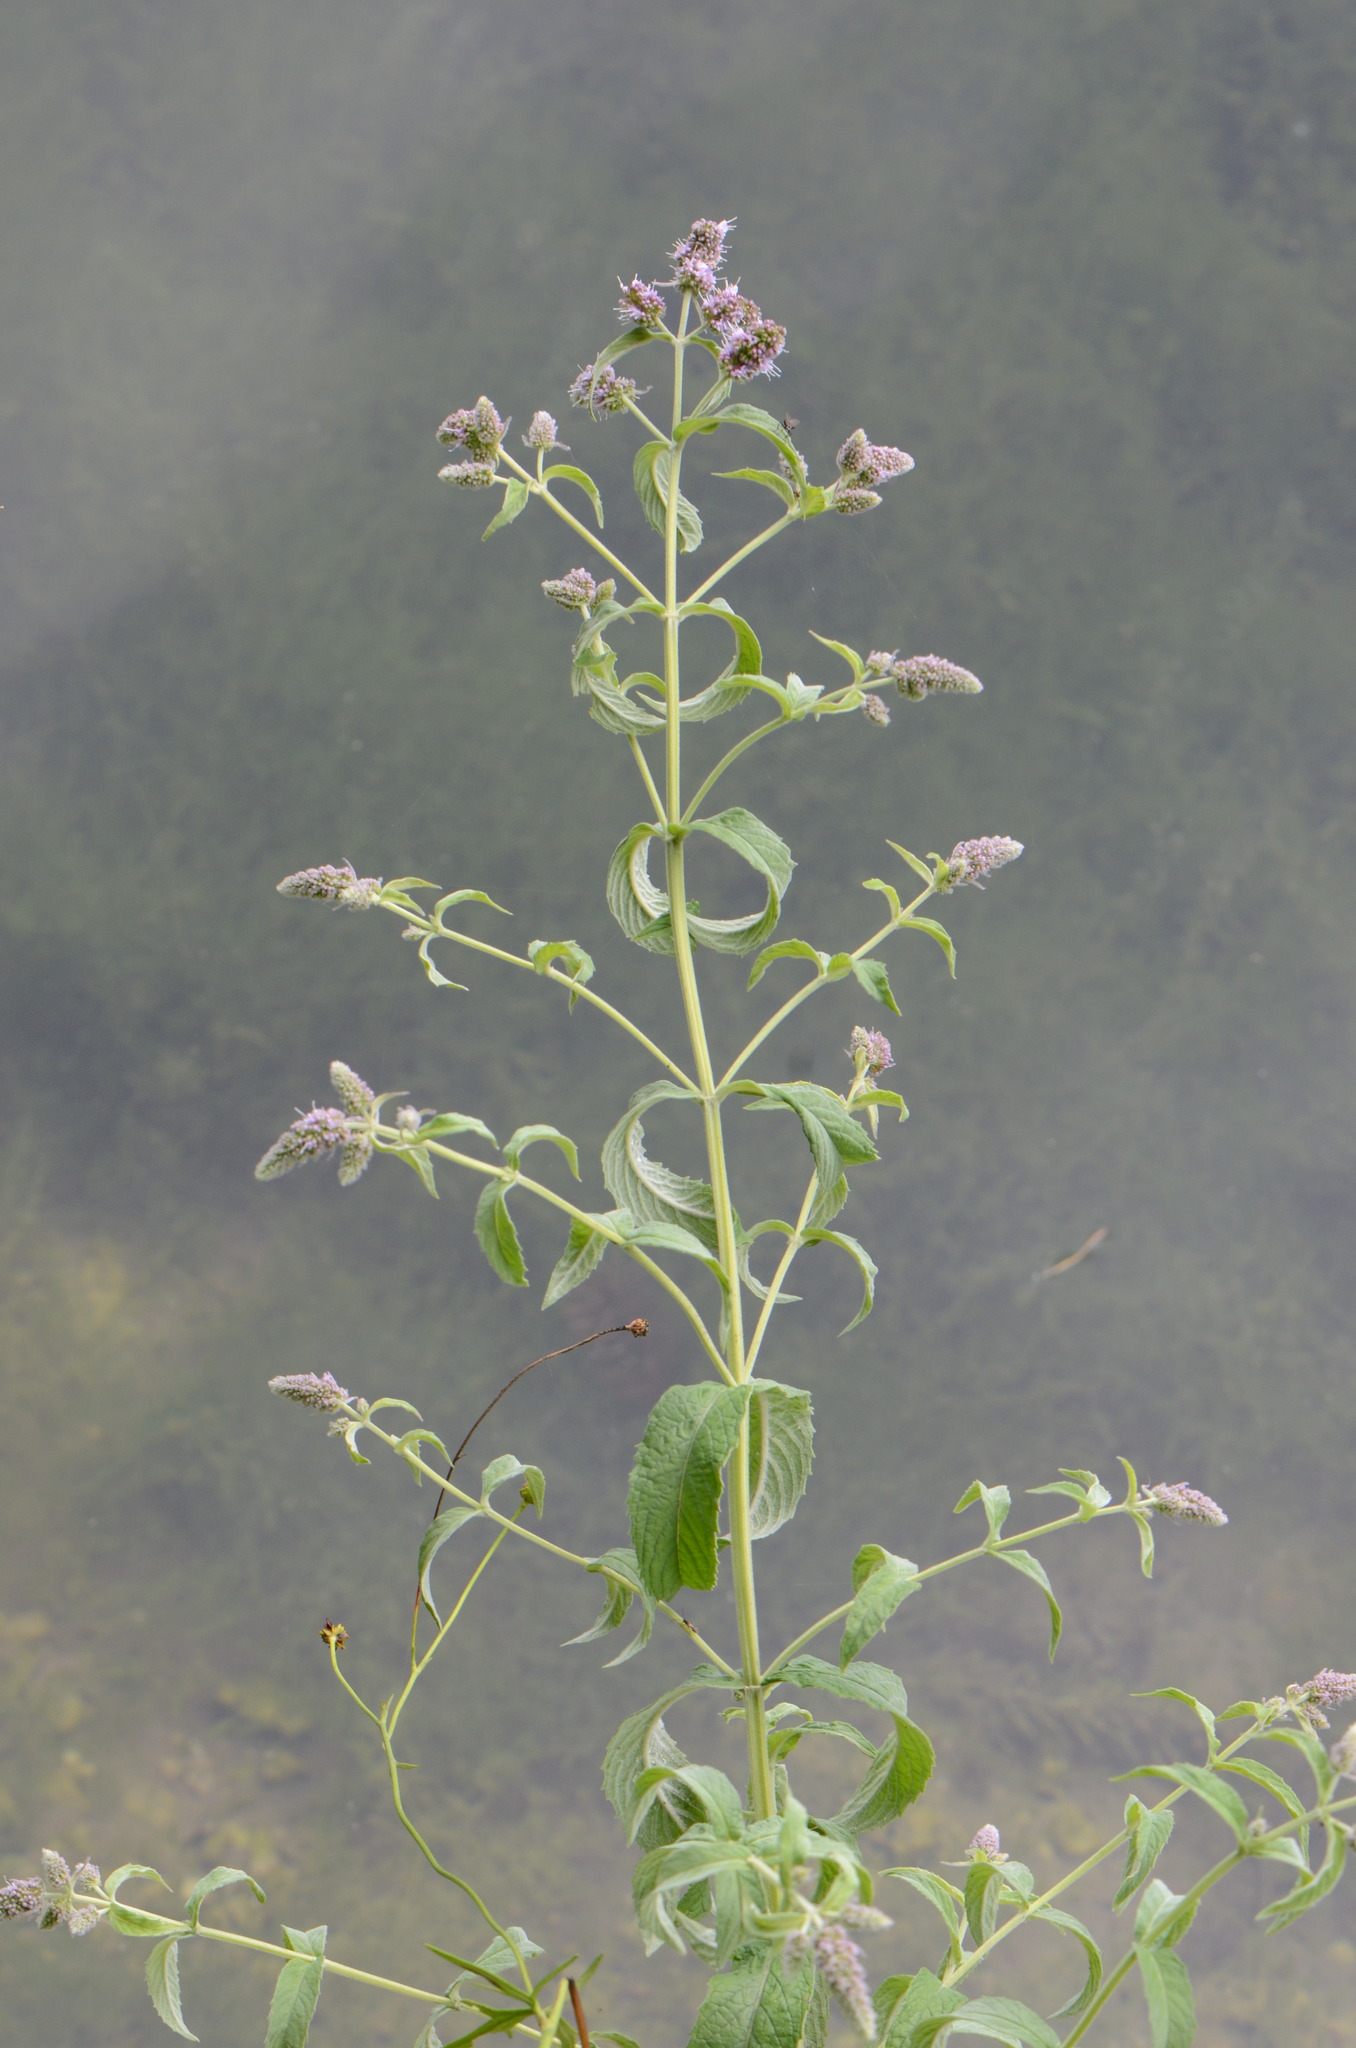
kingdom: Plantae
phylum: Tracheophyta
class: Magnoliopsida
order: Lamiales
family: Lamiaceae
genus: Mentha
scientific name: Mentha longifolia
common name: Horse mint
